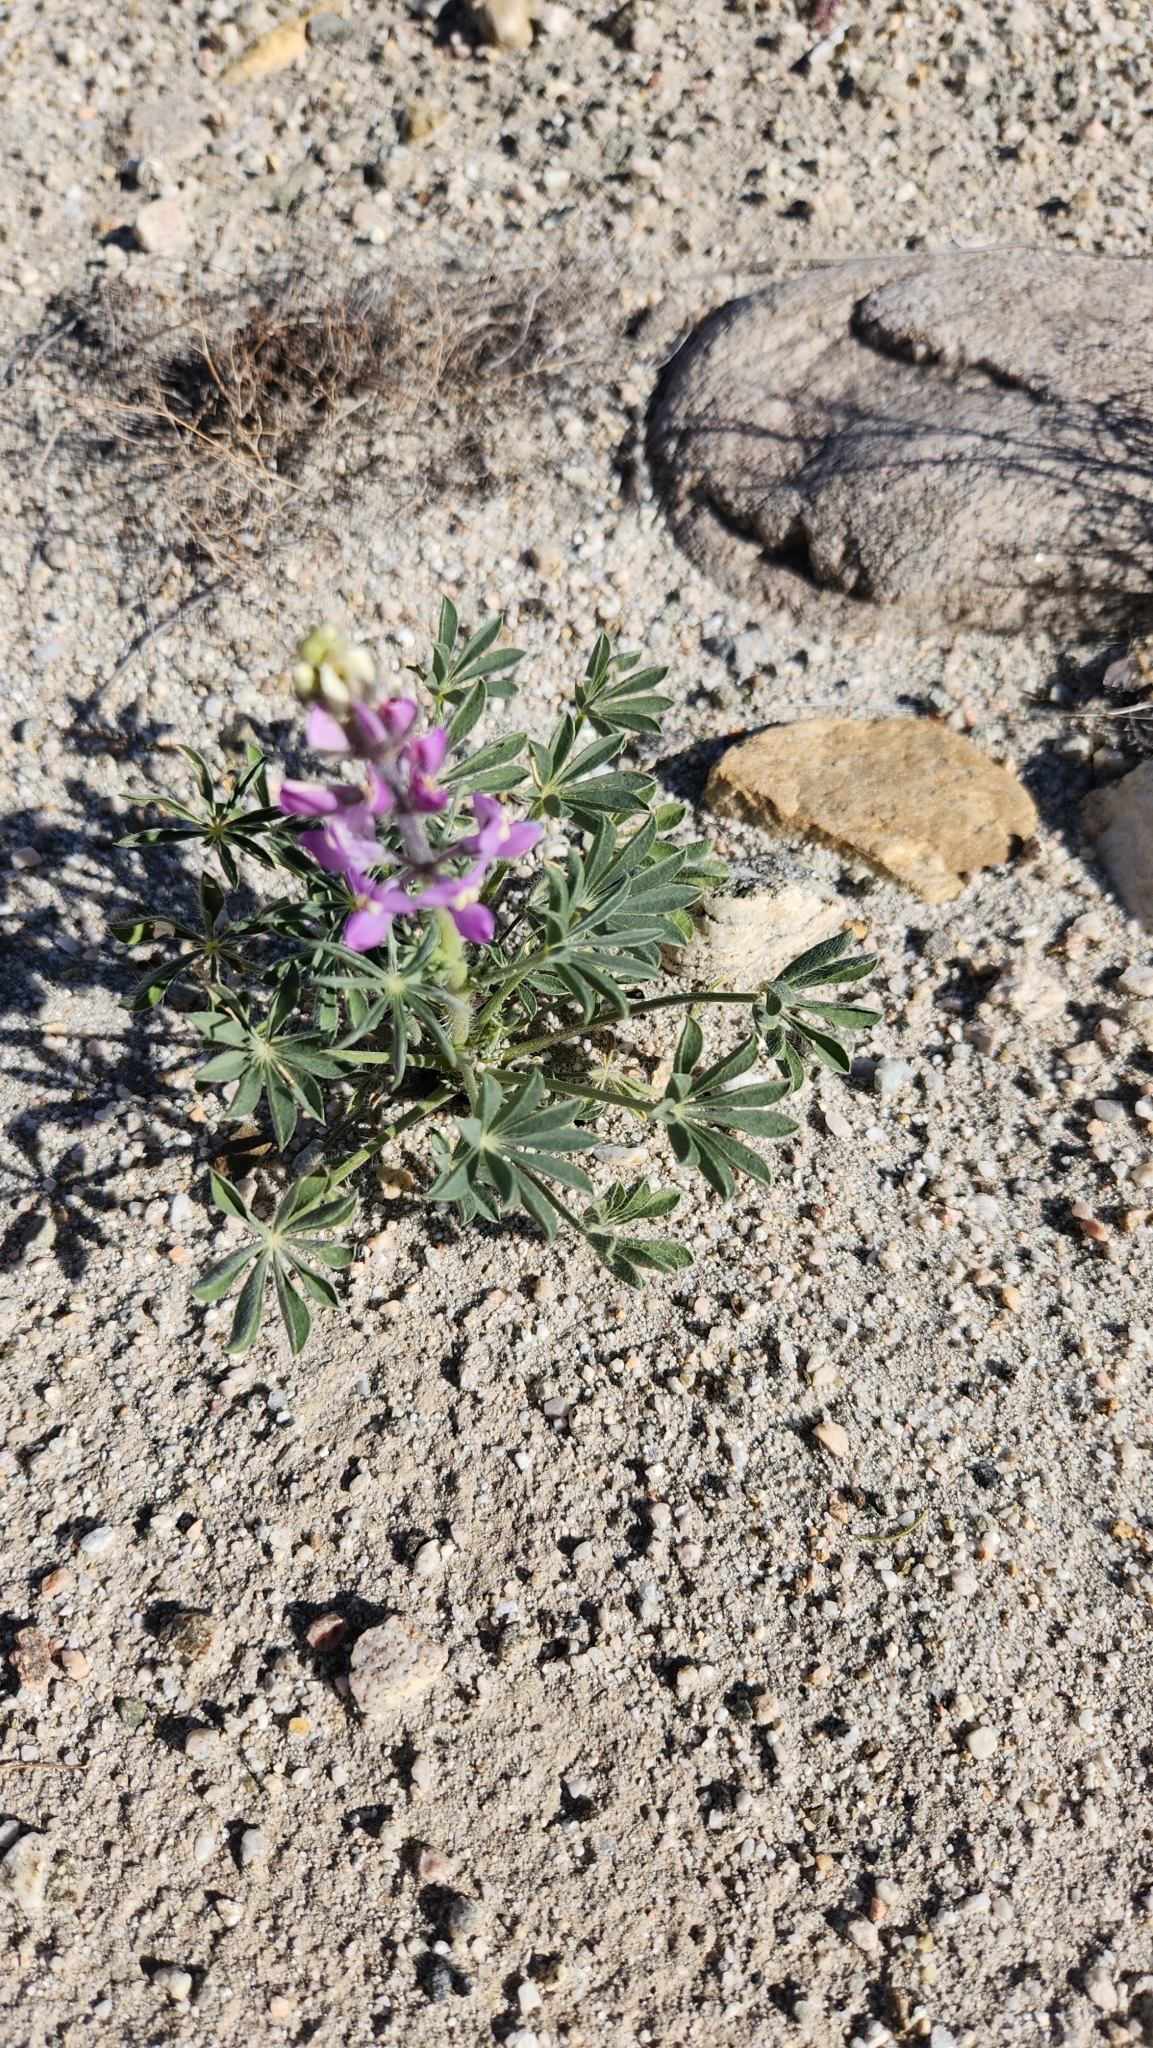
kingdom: Plantae
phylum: Tracheophyta
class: Magnoliopsida
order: Fabales
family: Fabaceae
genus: Lupinus
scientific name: Lupinus arizonicus
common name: Arizona lupine
